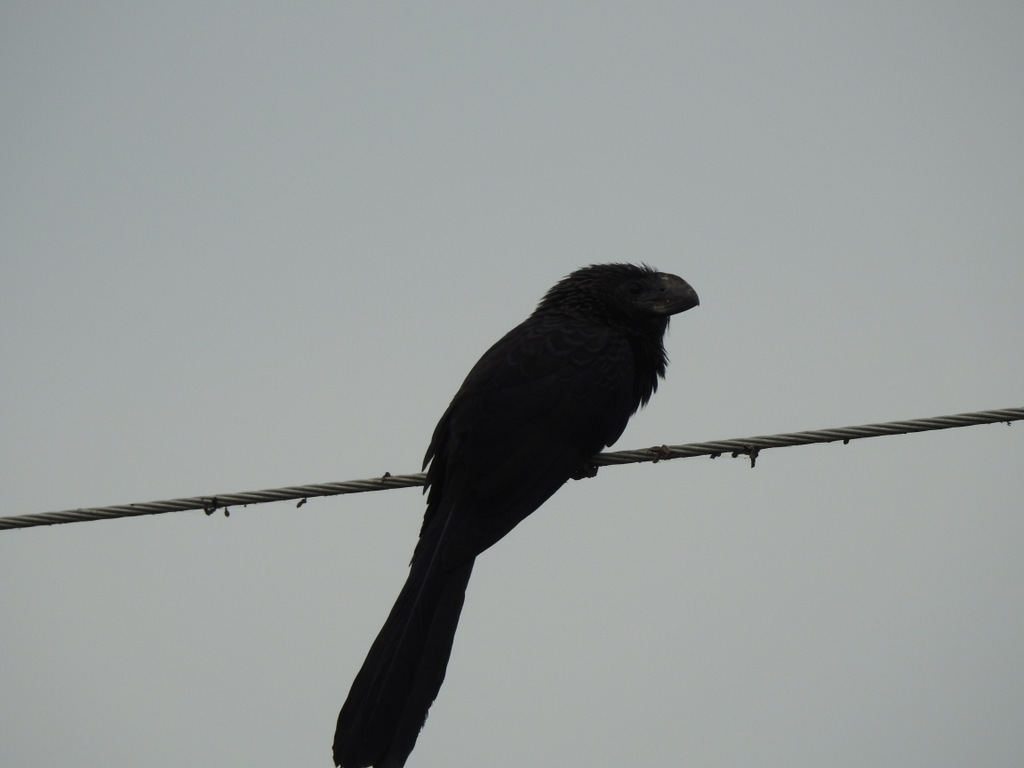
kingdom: Animalia
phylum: Chordata
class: Aves
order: Cuculiformes
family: Cuculidae
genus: Crotophaga
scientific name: Crotophaga ani
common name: Smooth-billed ani
